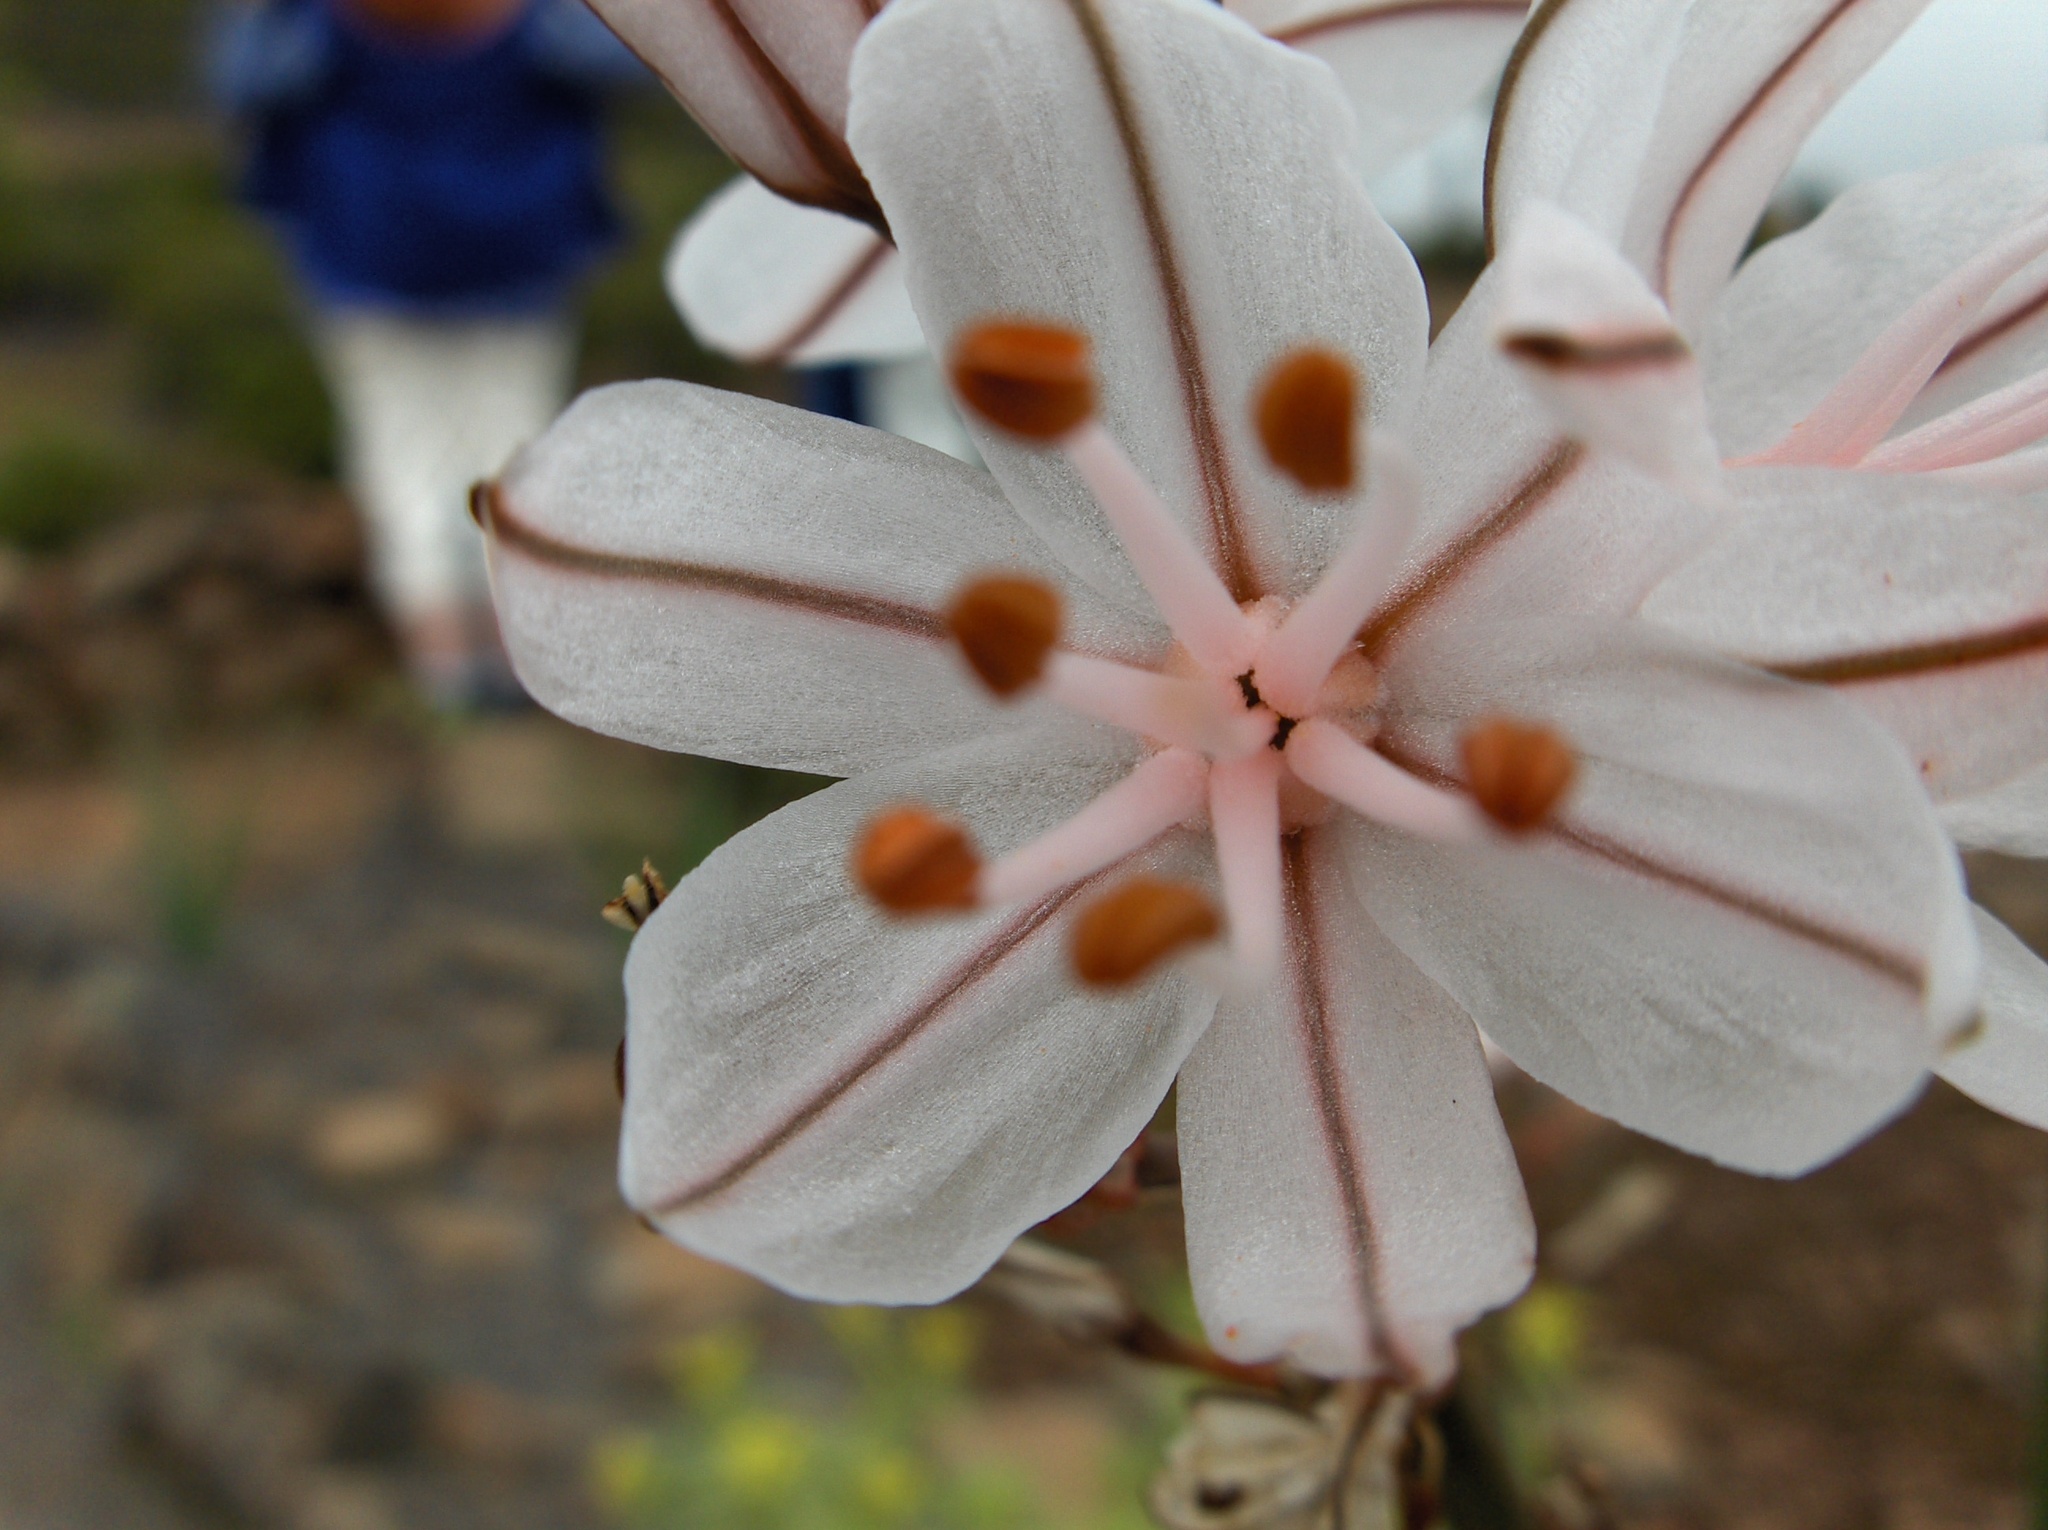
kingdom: Plantae
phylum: Tracheophyta
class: Liliopsida
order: Asparagales
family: Asphodelaceae
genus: Asphodelus
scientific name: Asphodelus ramosus
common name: Silverrod
